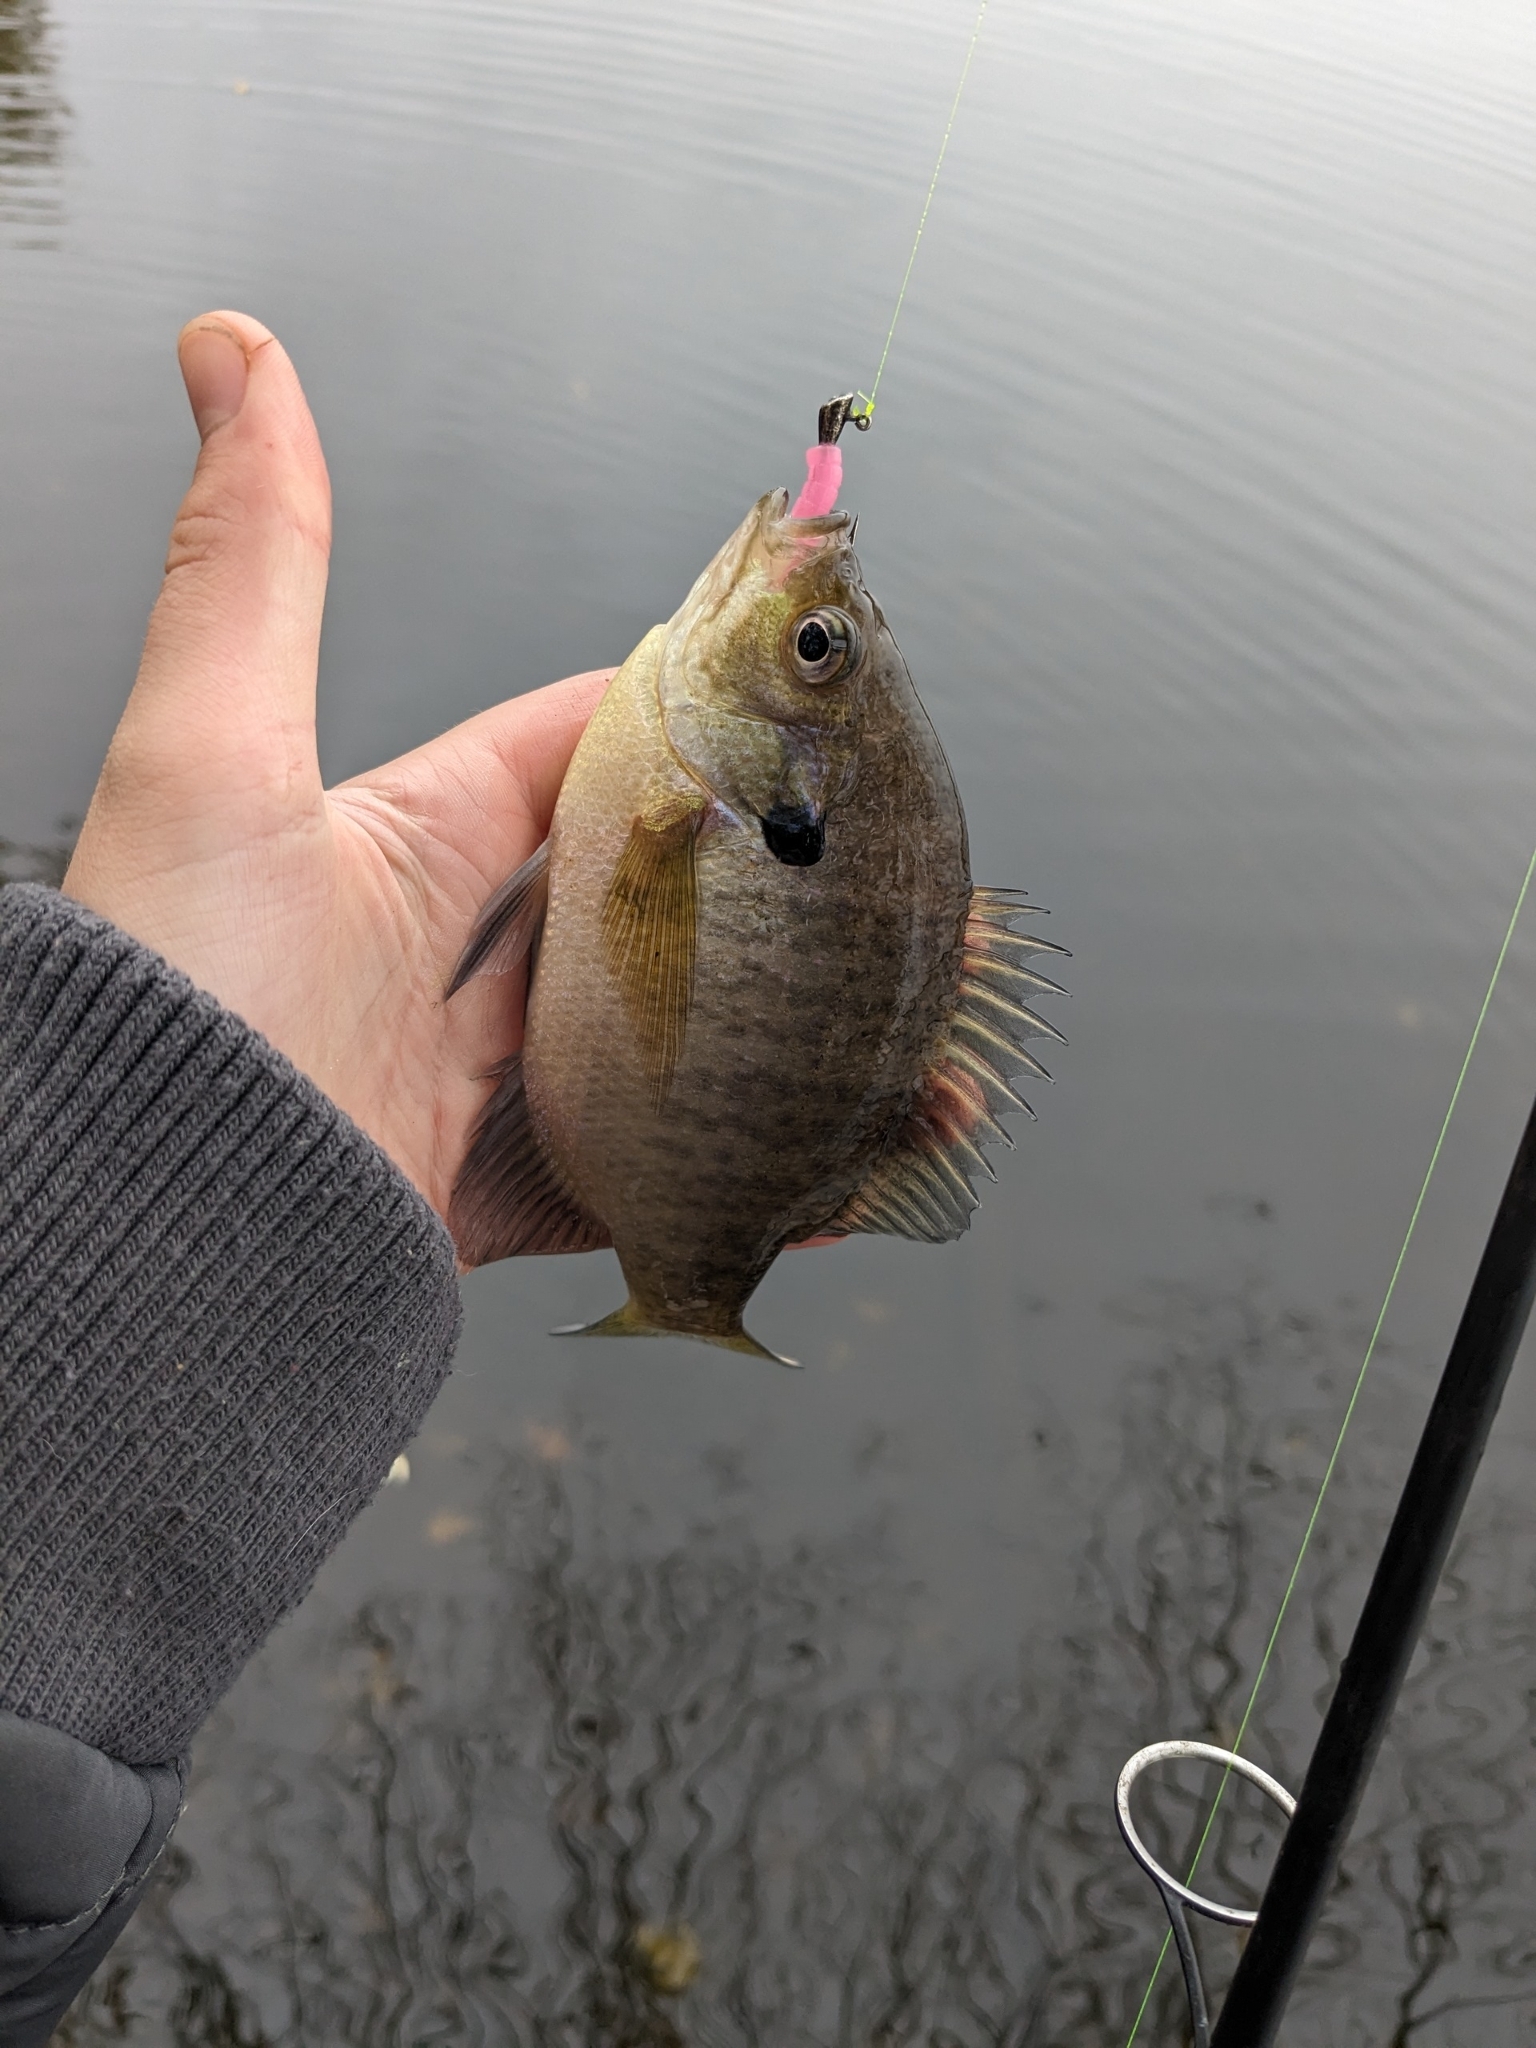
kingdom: Animalia
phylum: Chordata
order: Perciformes
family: Centrarchidae
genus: Lepomis
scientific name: Lepomis macrochirus
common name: Bluegill
